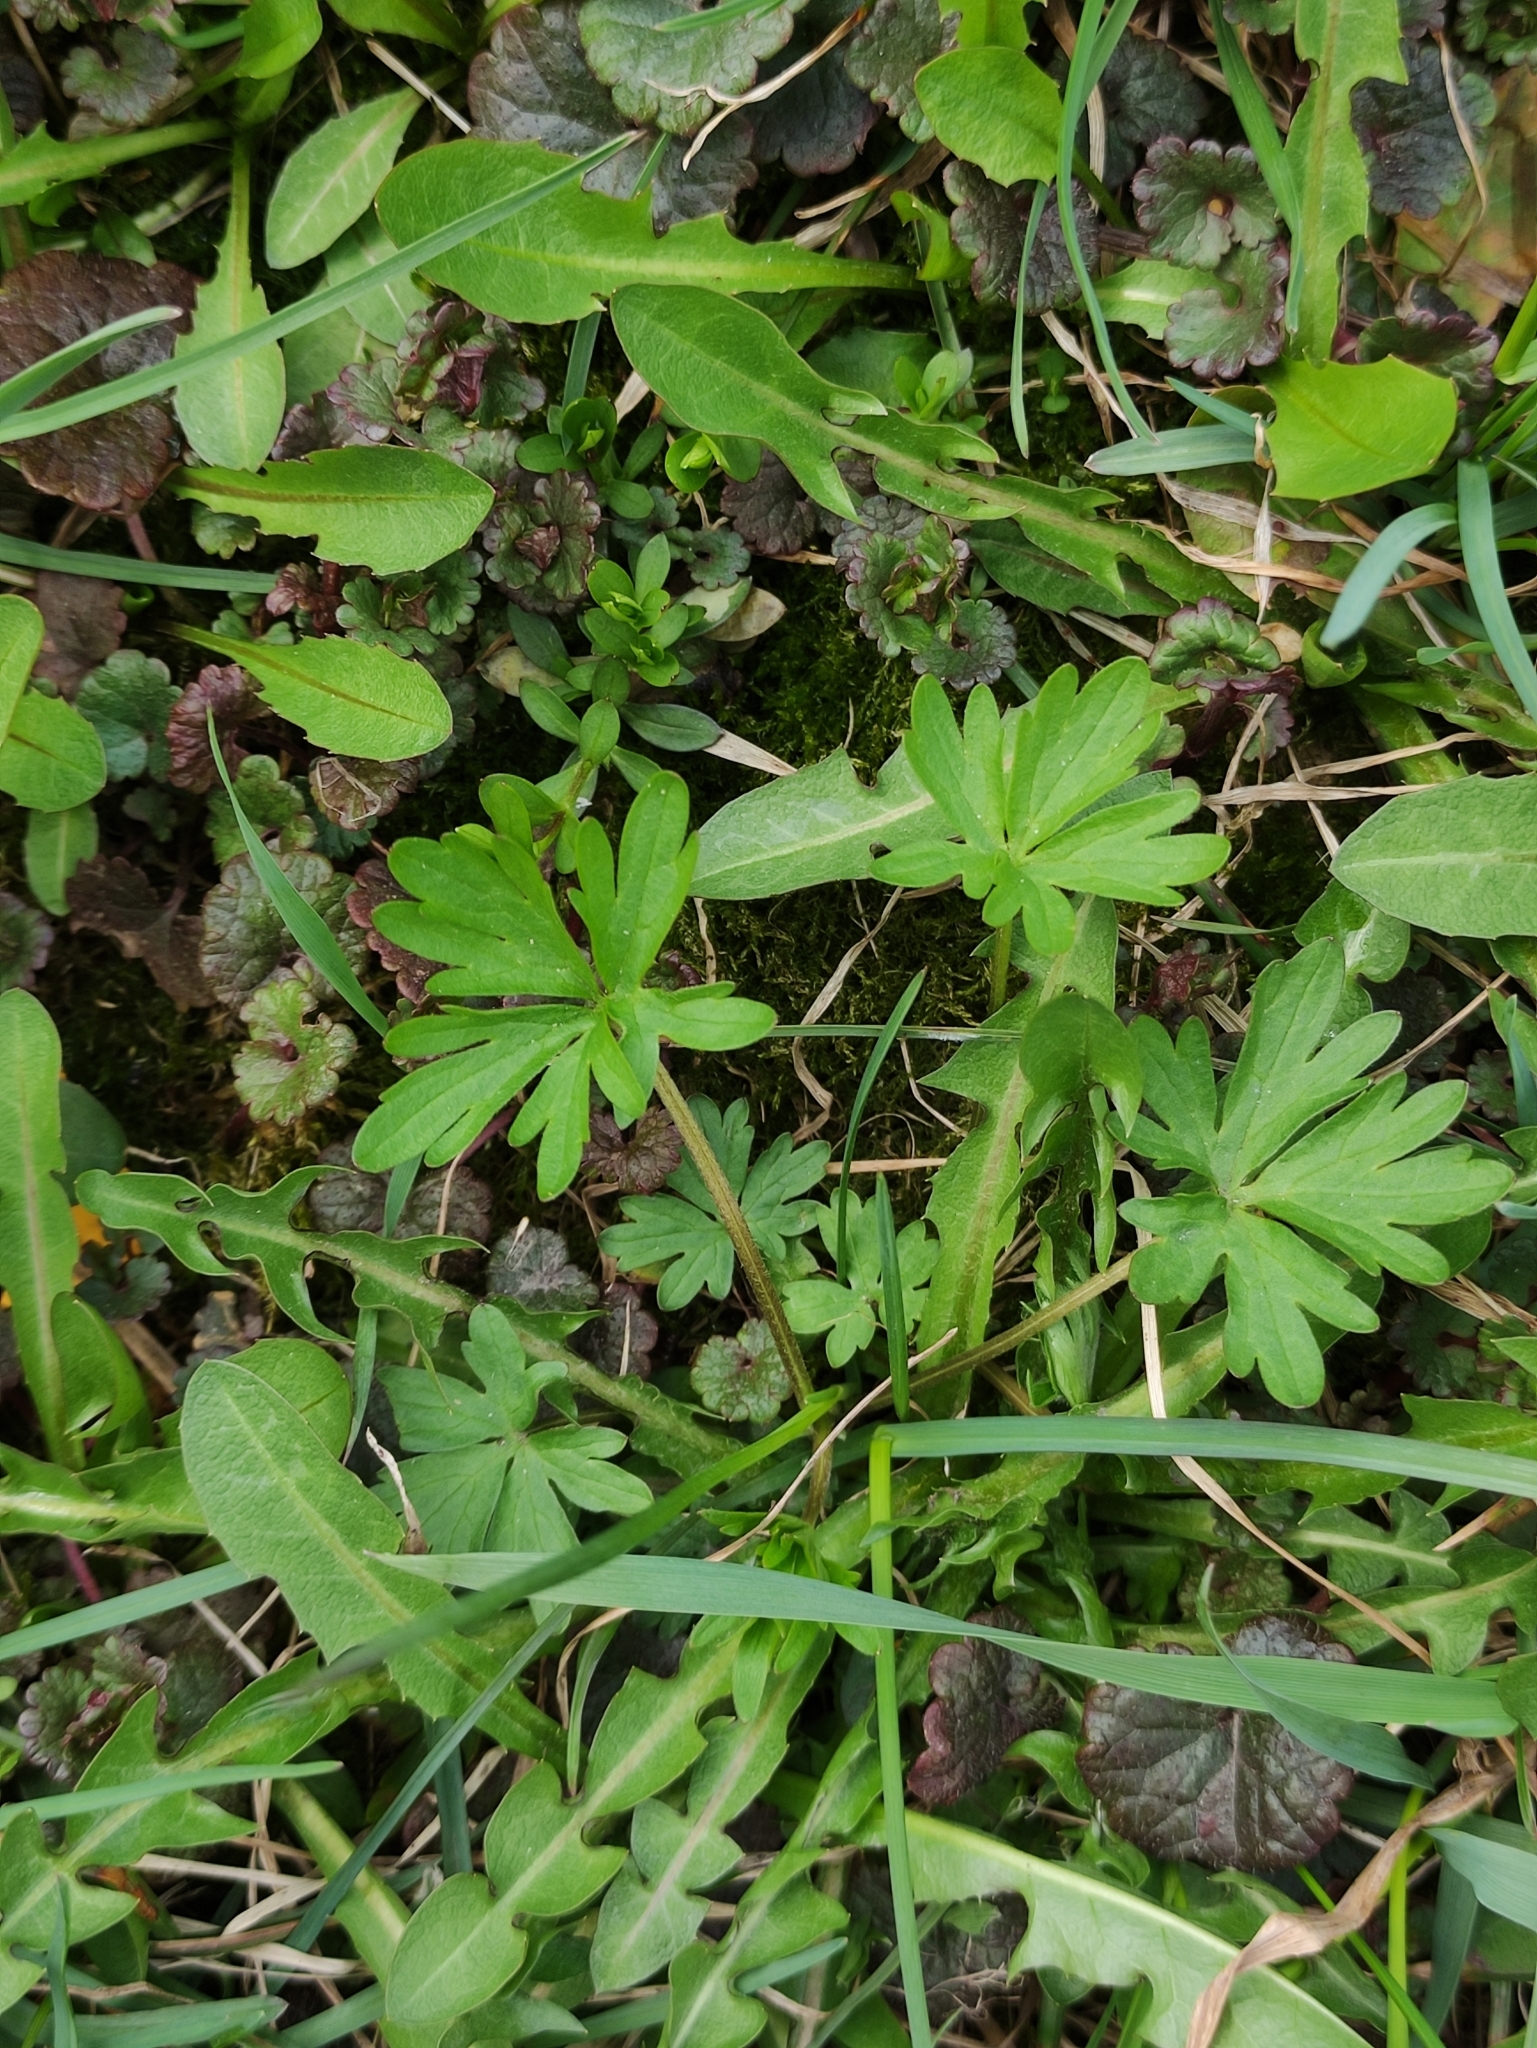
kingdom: Plantae
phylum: Tracheophyta
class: Magnoliopsida
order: Geraniales
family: Geraniaceae
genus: Geranium
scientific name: Geranium sibiricum
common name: Siberian crane's-bill
